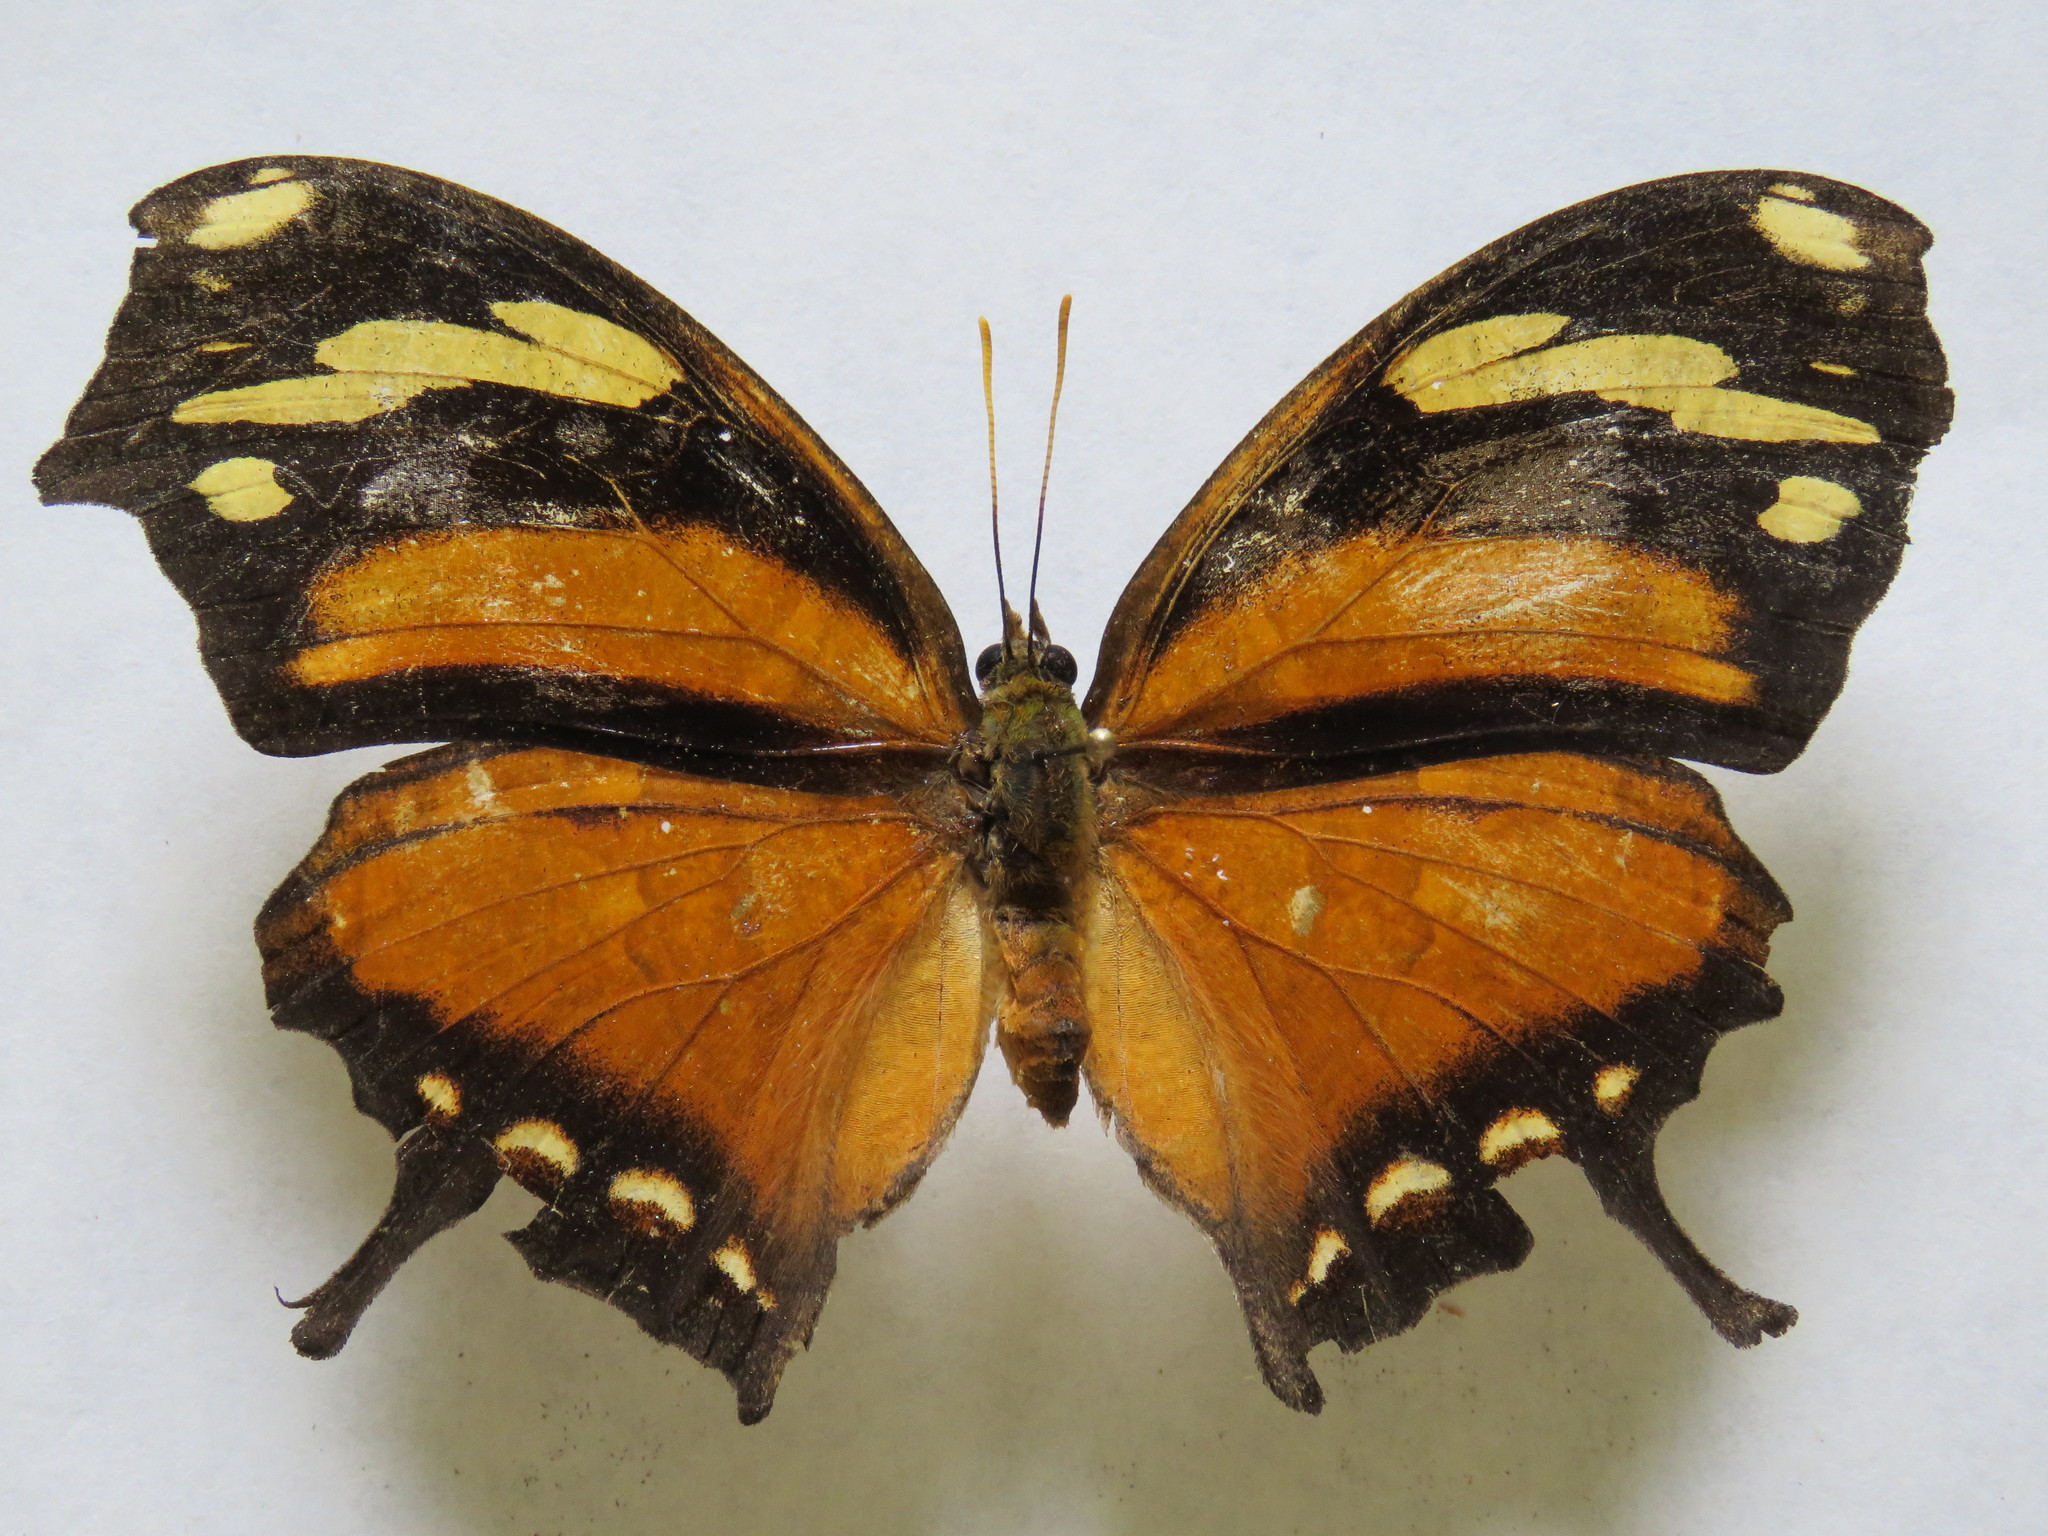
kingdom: Animalia
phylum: Arthropoda
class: Insecta
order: Lepidoptera
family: Nymphalidae
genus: Consul
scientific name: Consul fabius
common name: Tiger leafwing
